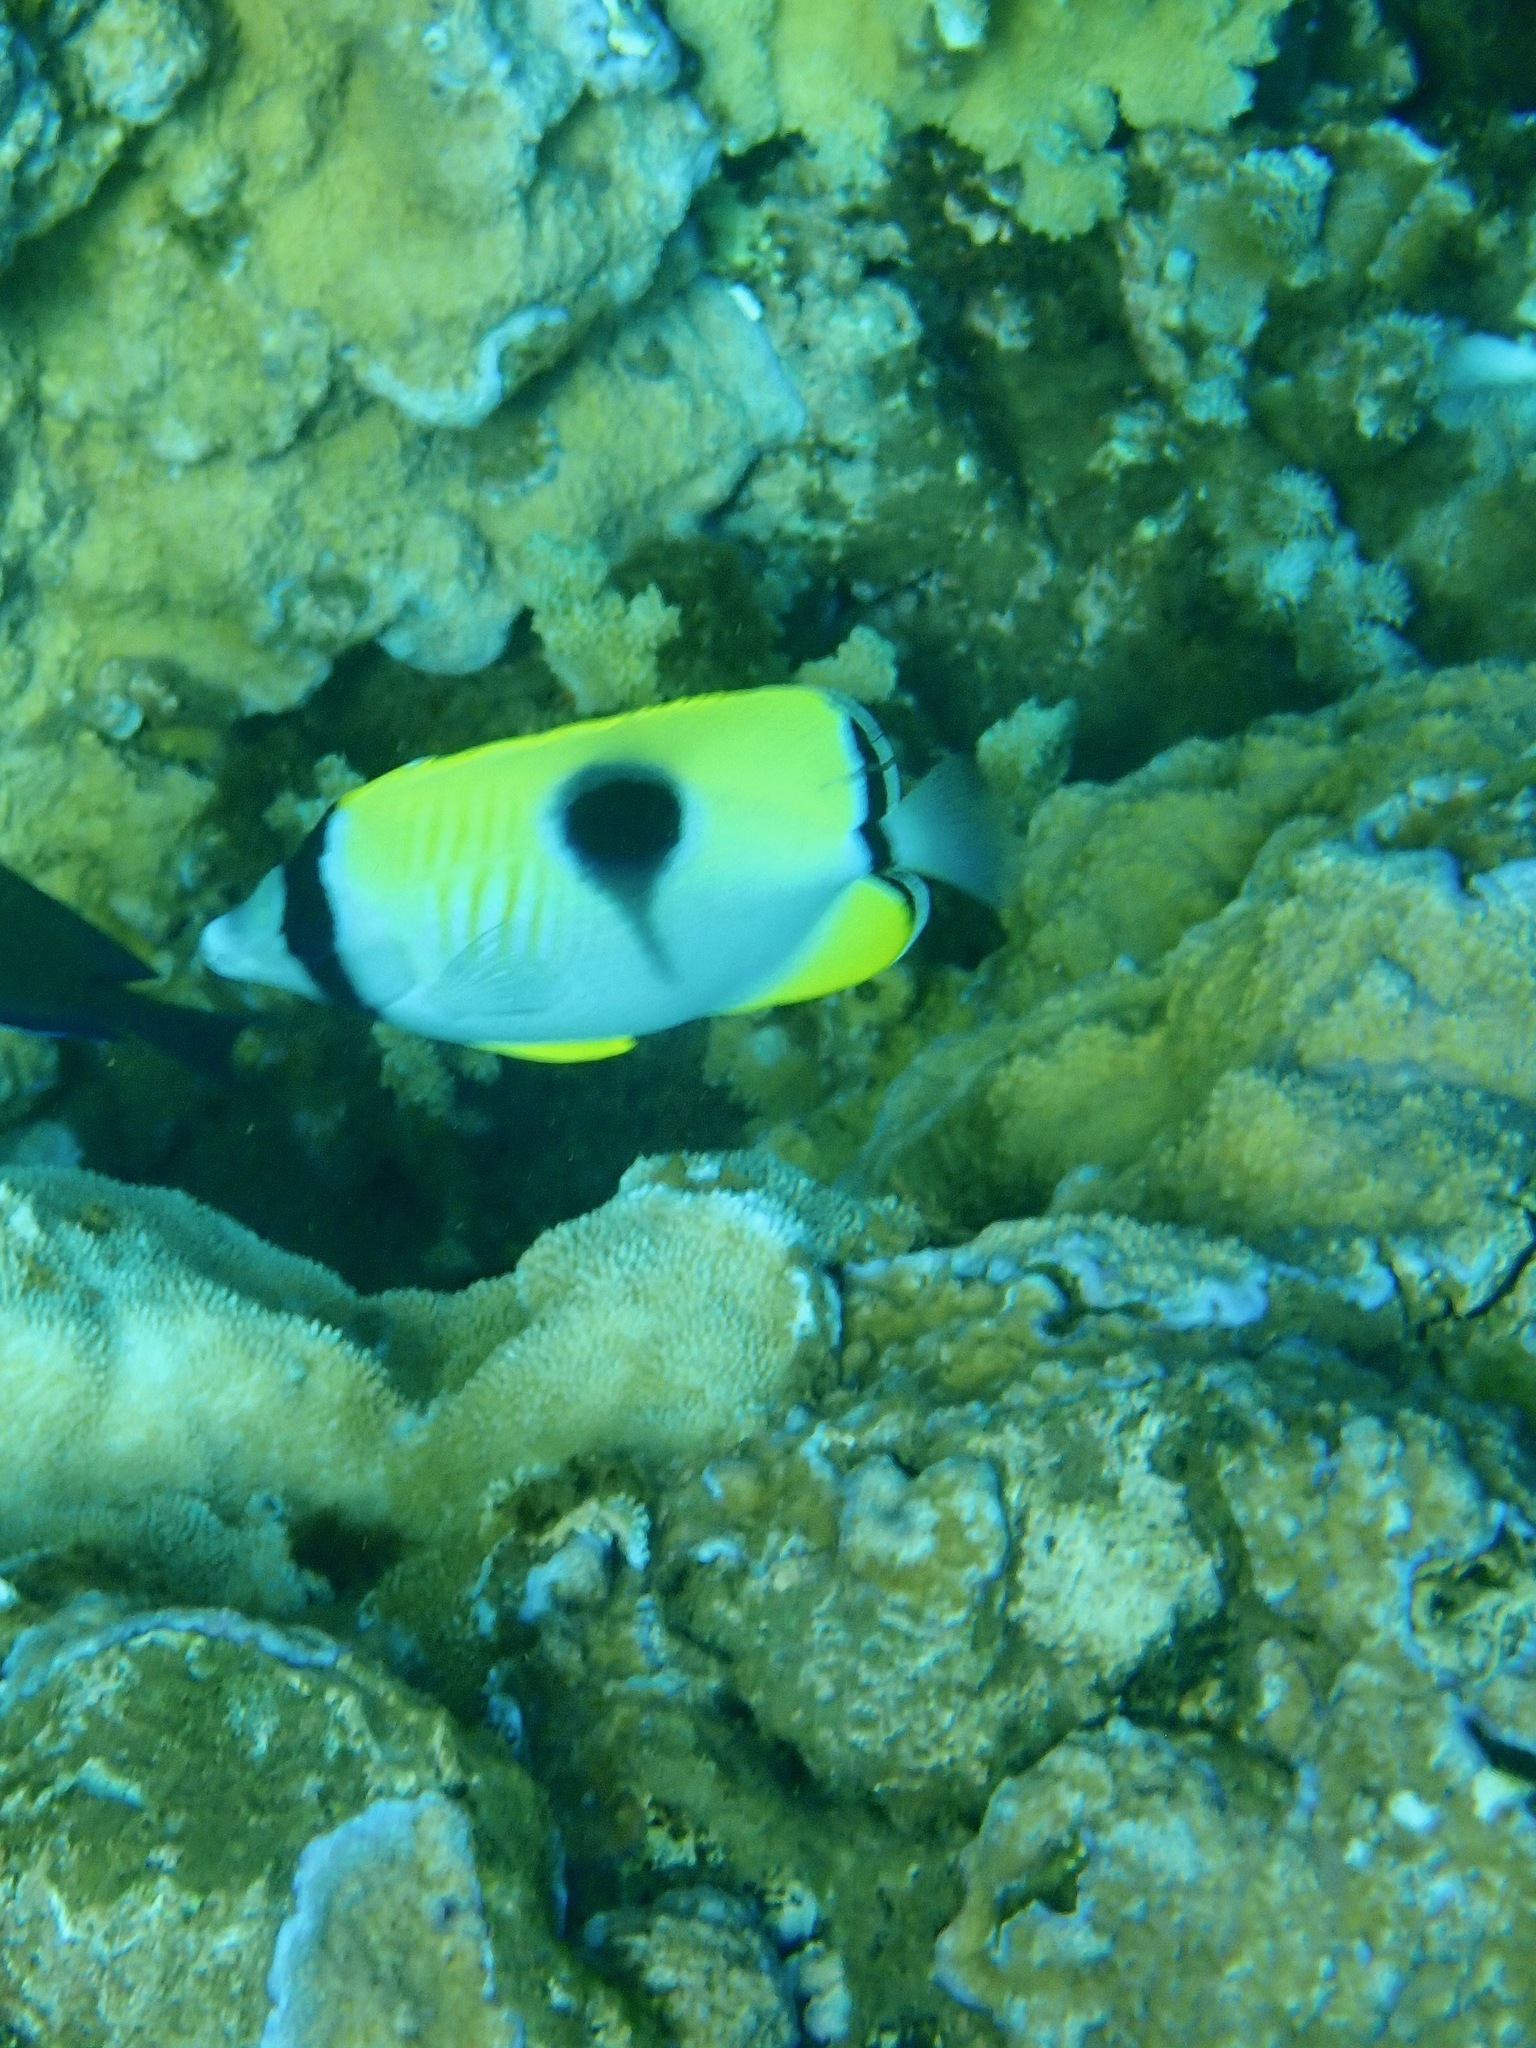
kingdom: Animalia
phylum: Chordata
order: Perciformes
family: Chaetodontidae
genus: Chaetodon
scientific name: Chaetodon unimaculatus
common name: Teardrop butterflyfish
